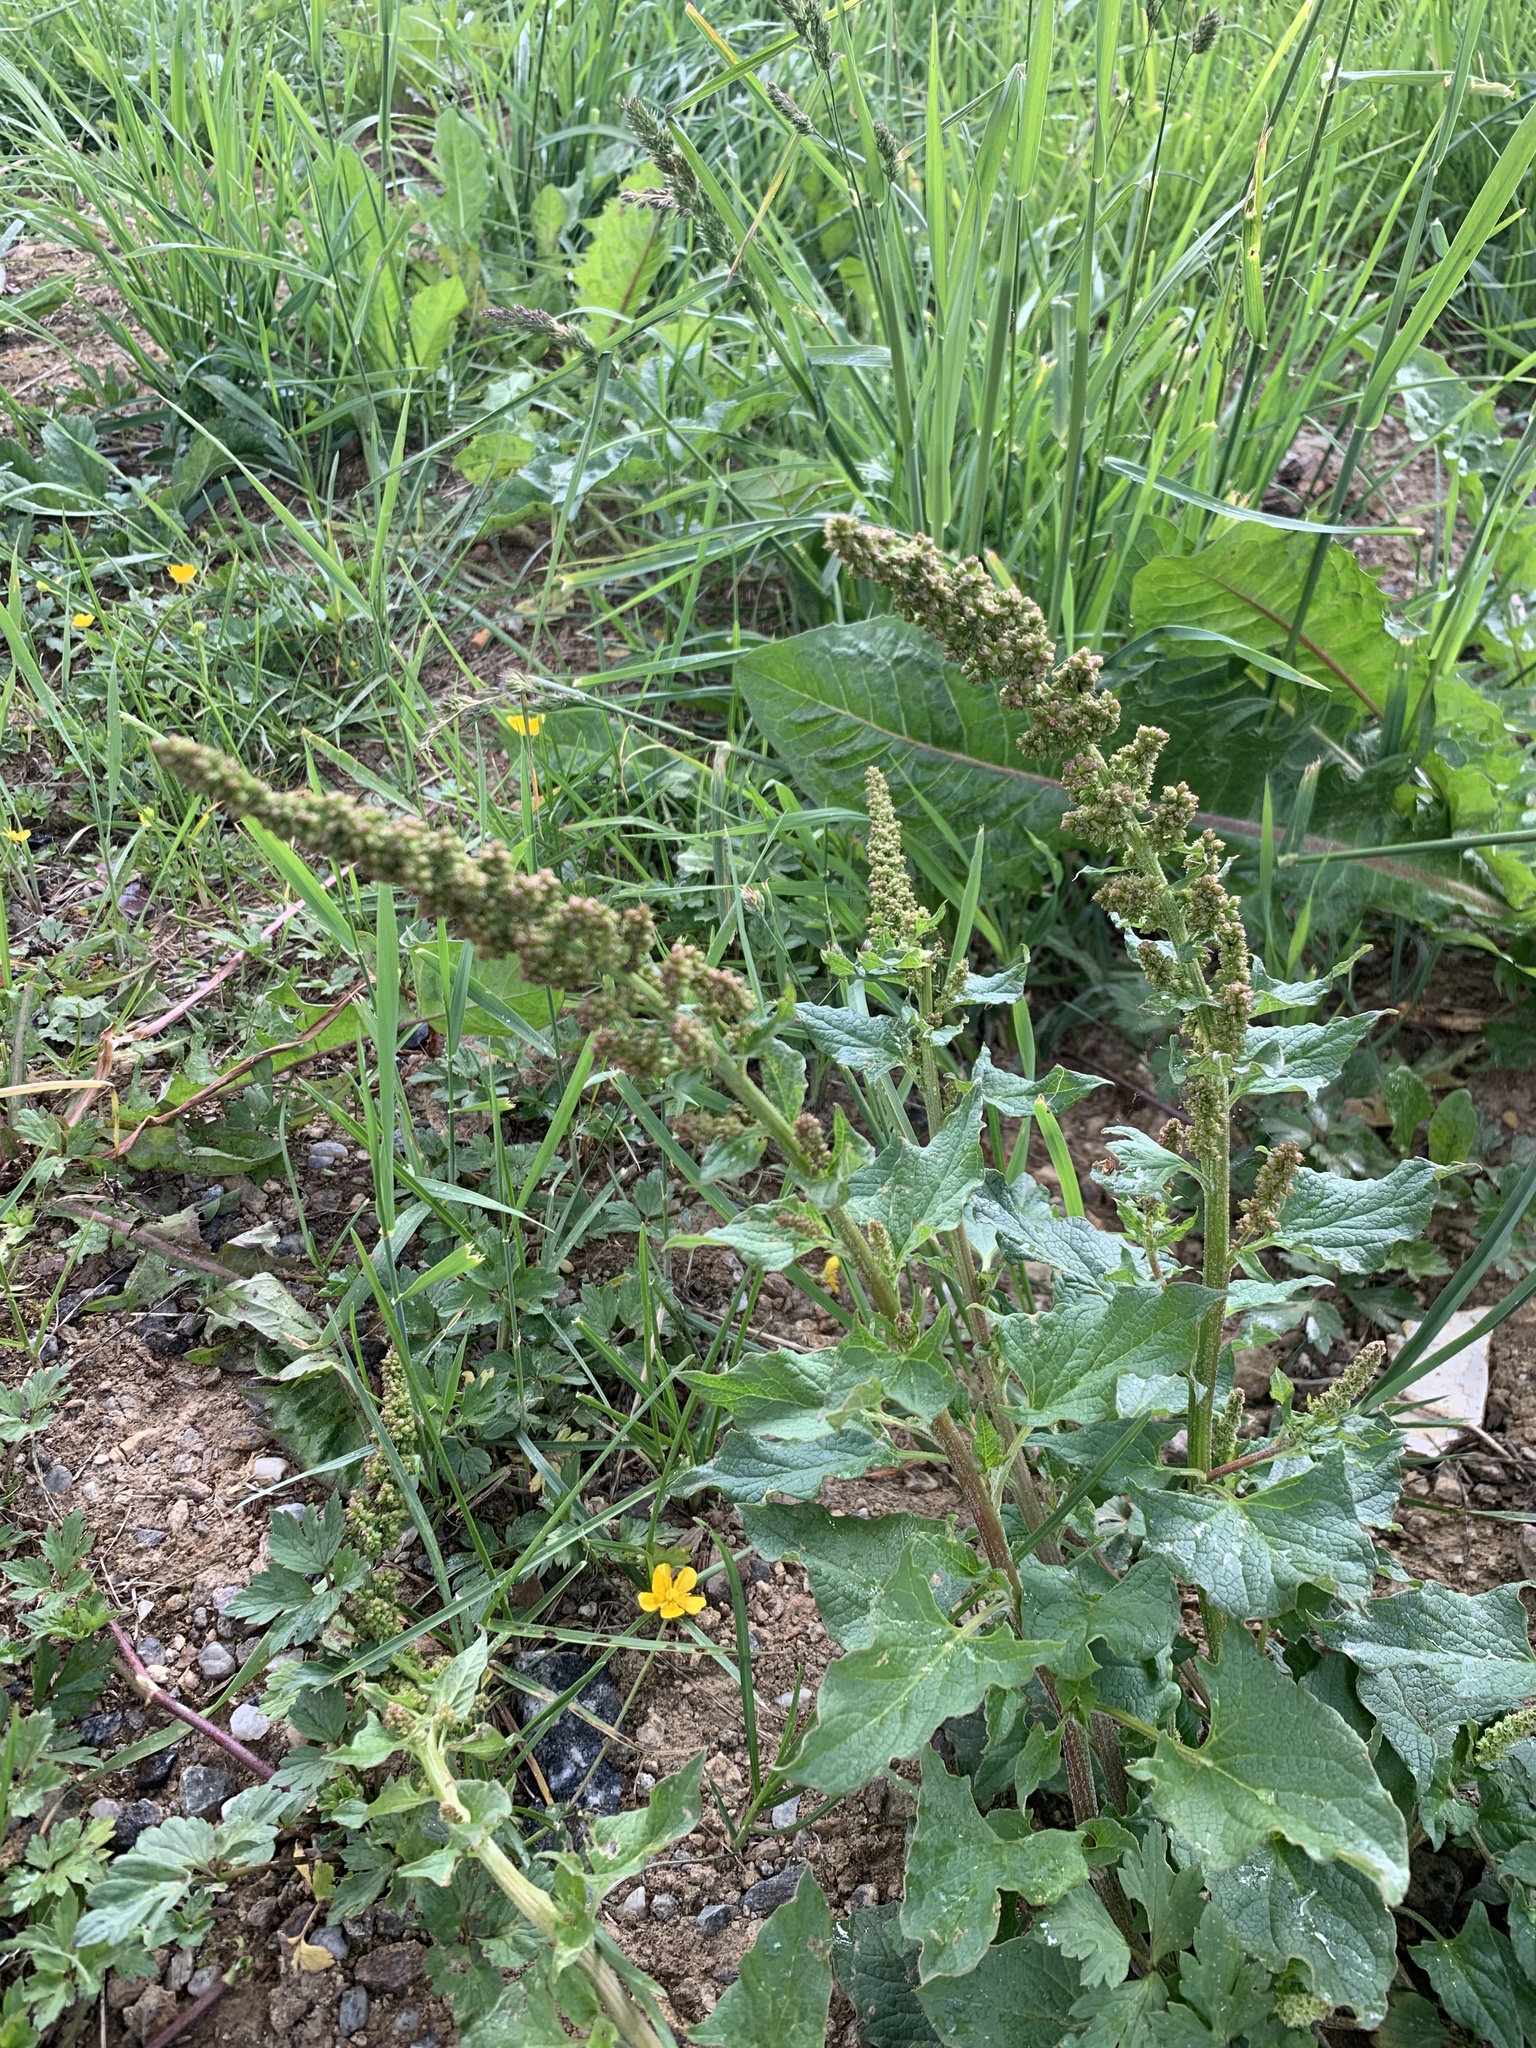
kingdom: Plantae
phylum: Tracheophyta
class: Magnoliopsida
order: Caryophyllales
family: Amaranthaceae
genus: Blitum
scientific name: Blitum bonus-henricus
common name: Good king henry
